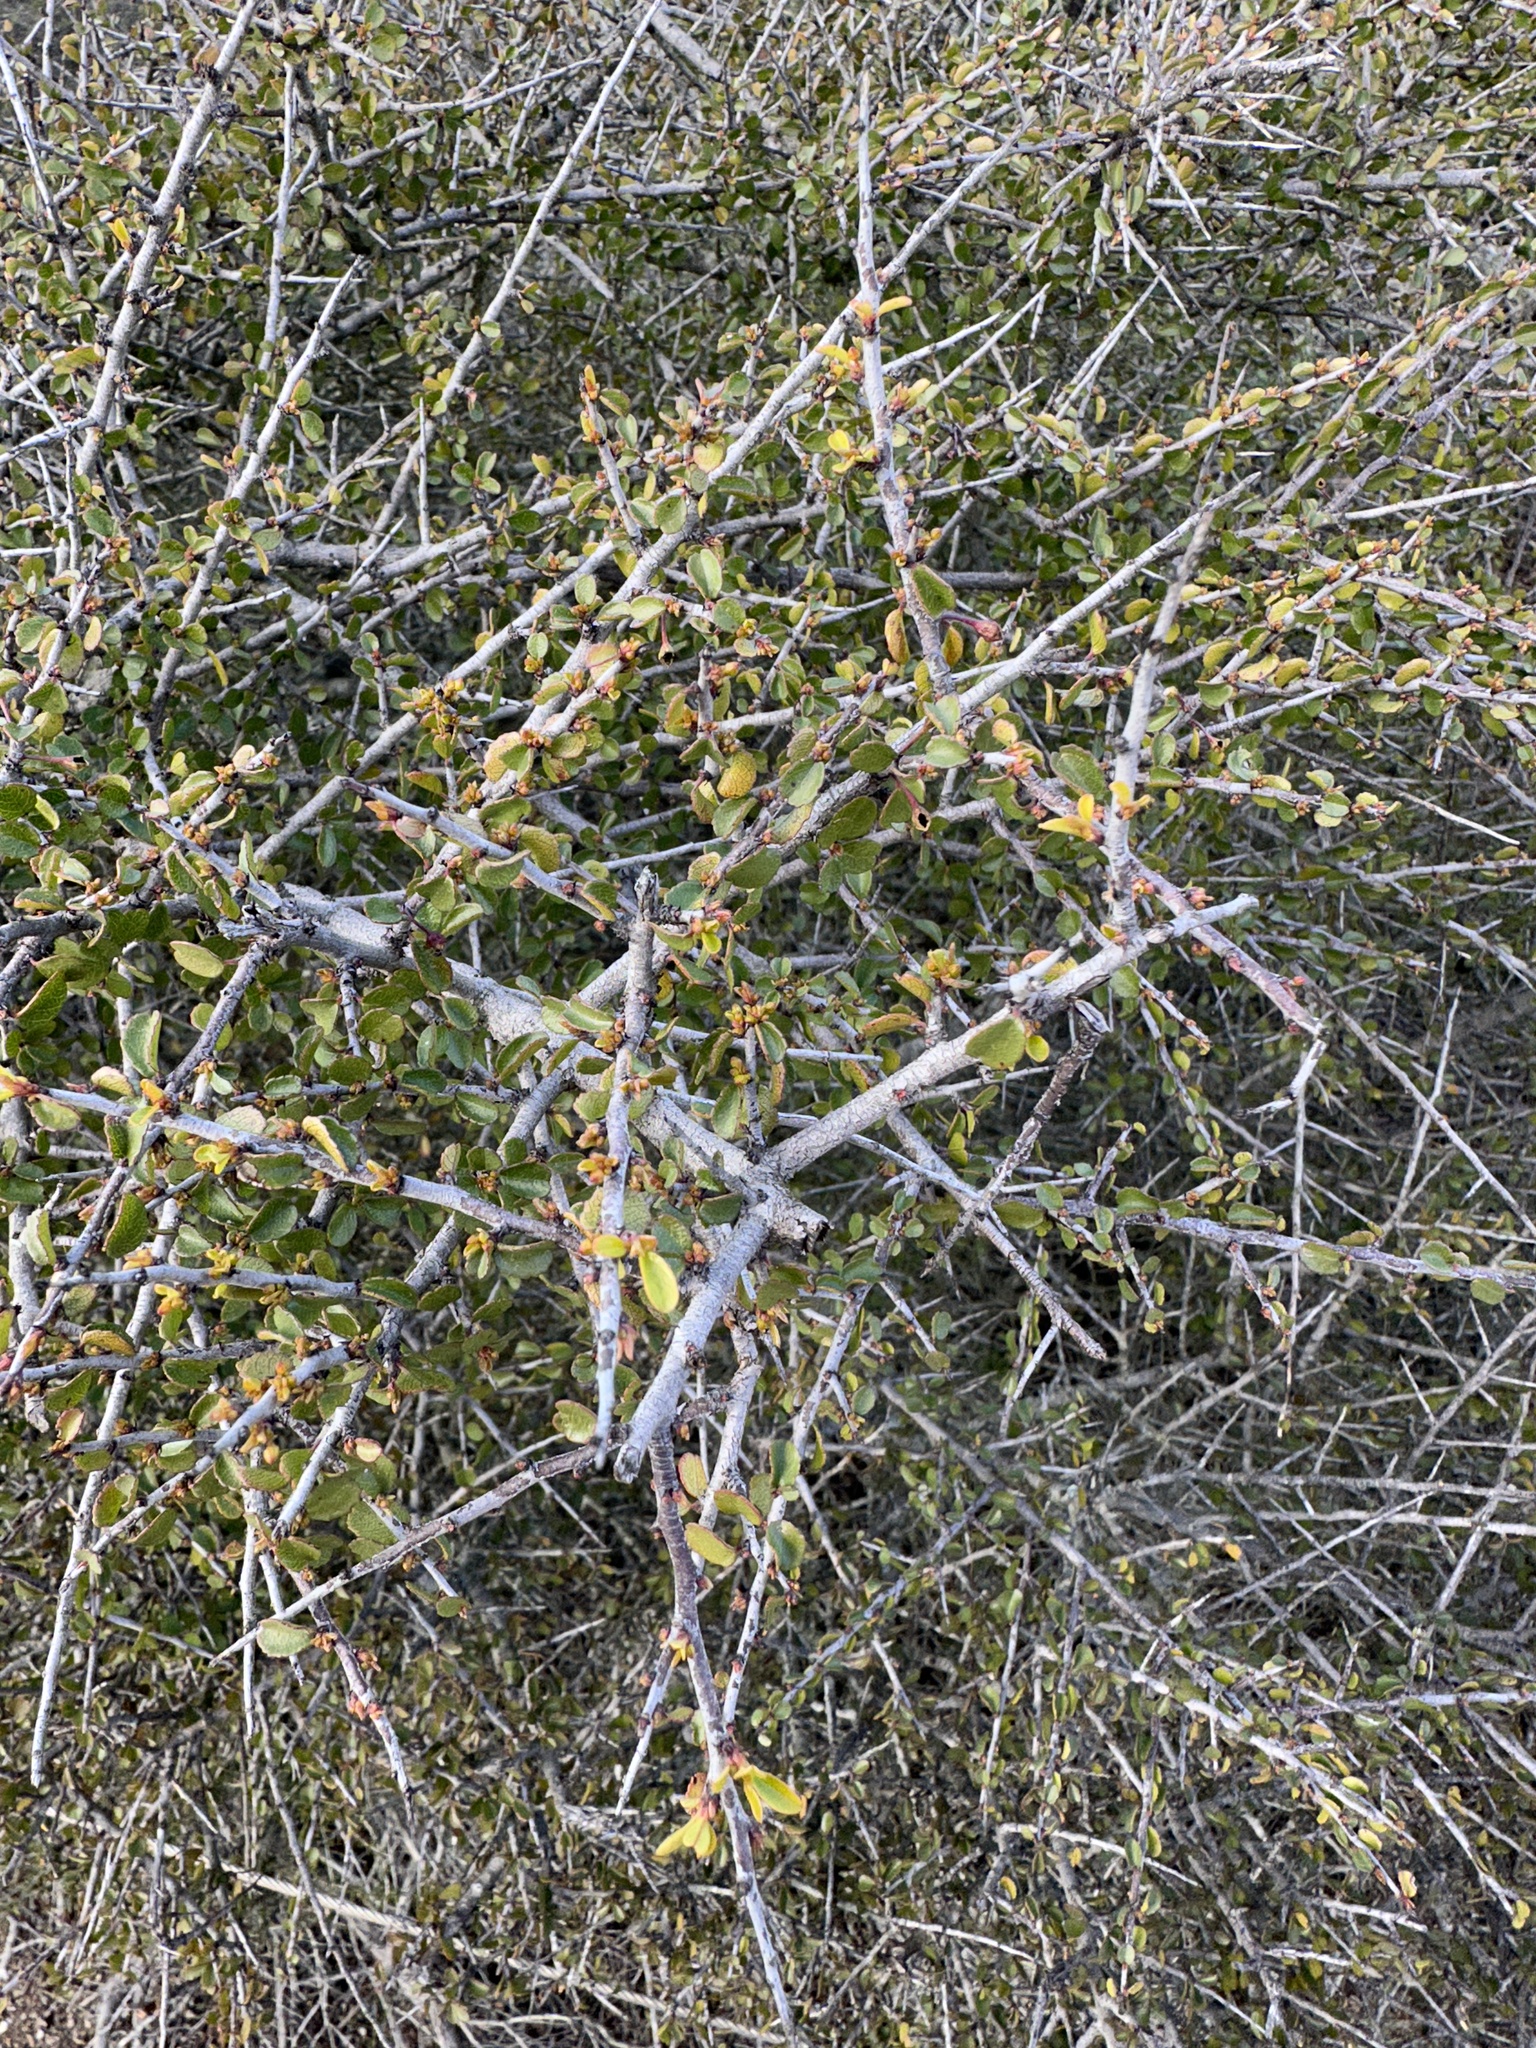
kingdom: Plantae
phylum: Tracheophyta
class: Magnoliopsida
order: Rosales
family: Rhamnaceae
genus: Endotropis
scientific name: Endotropis crocea
